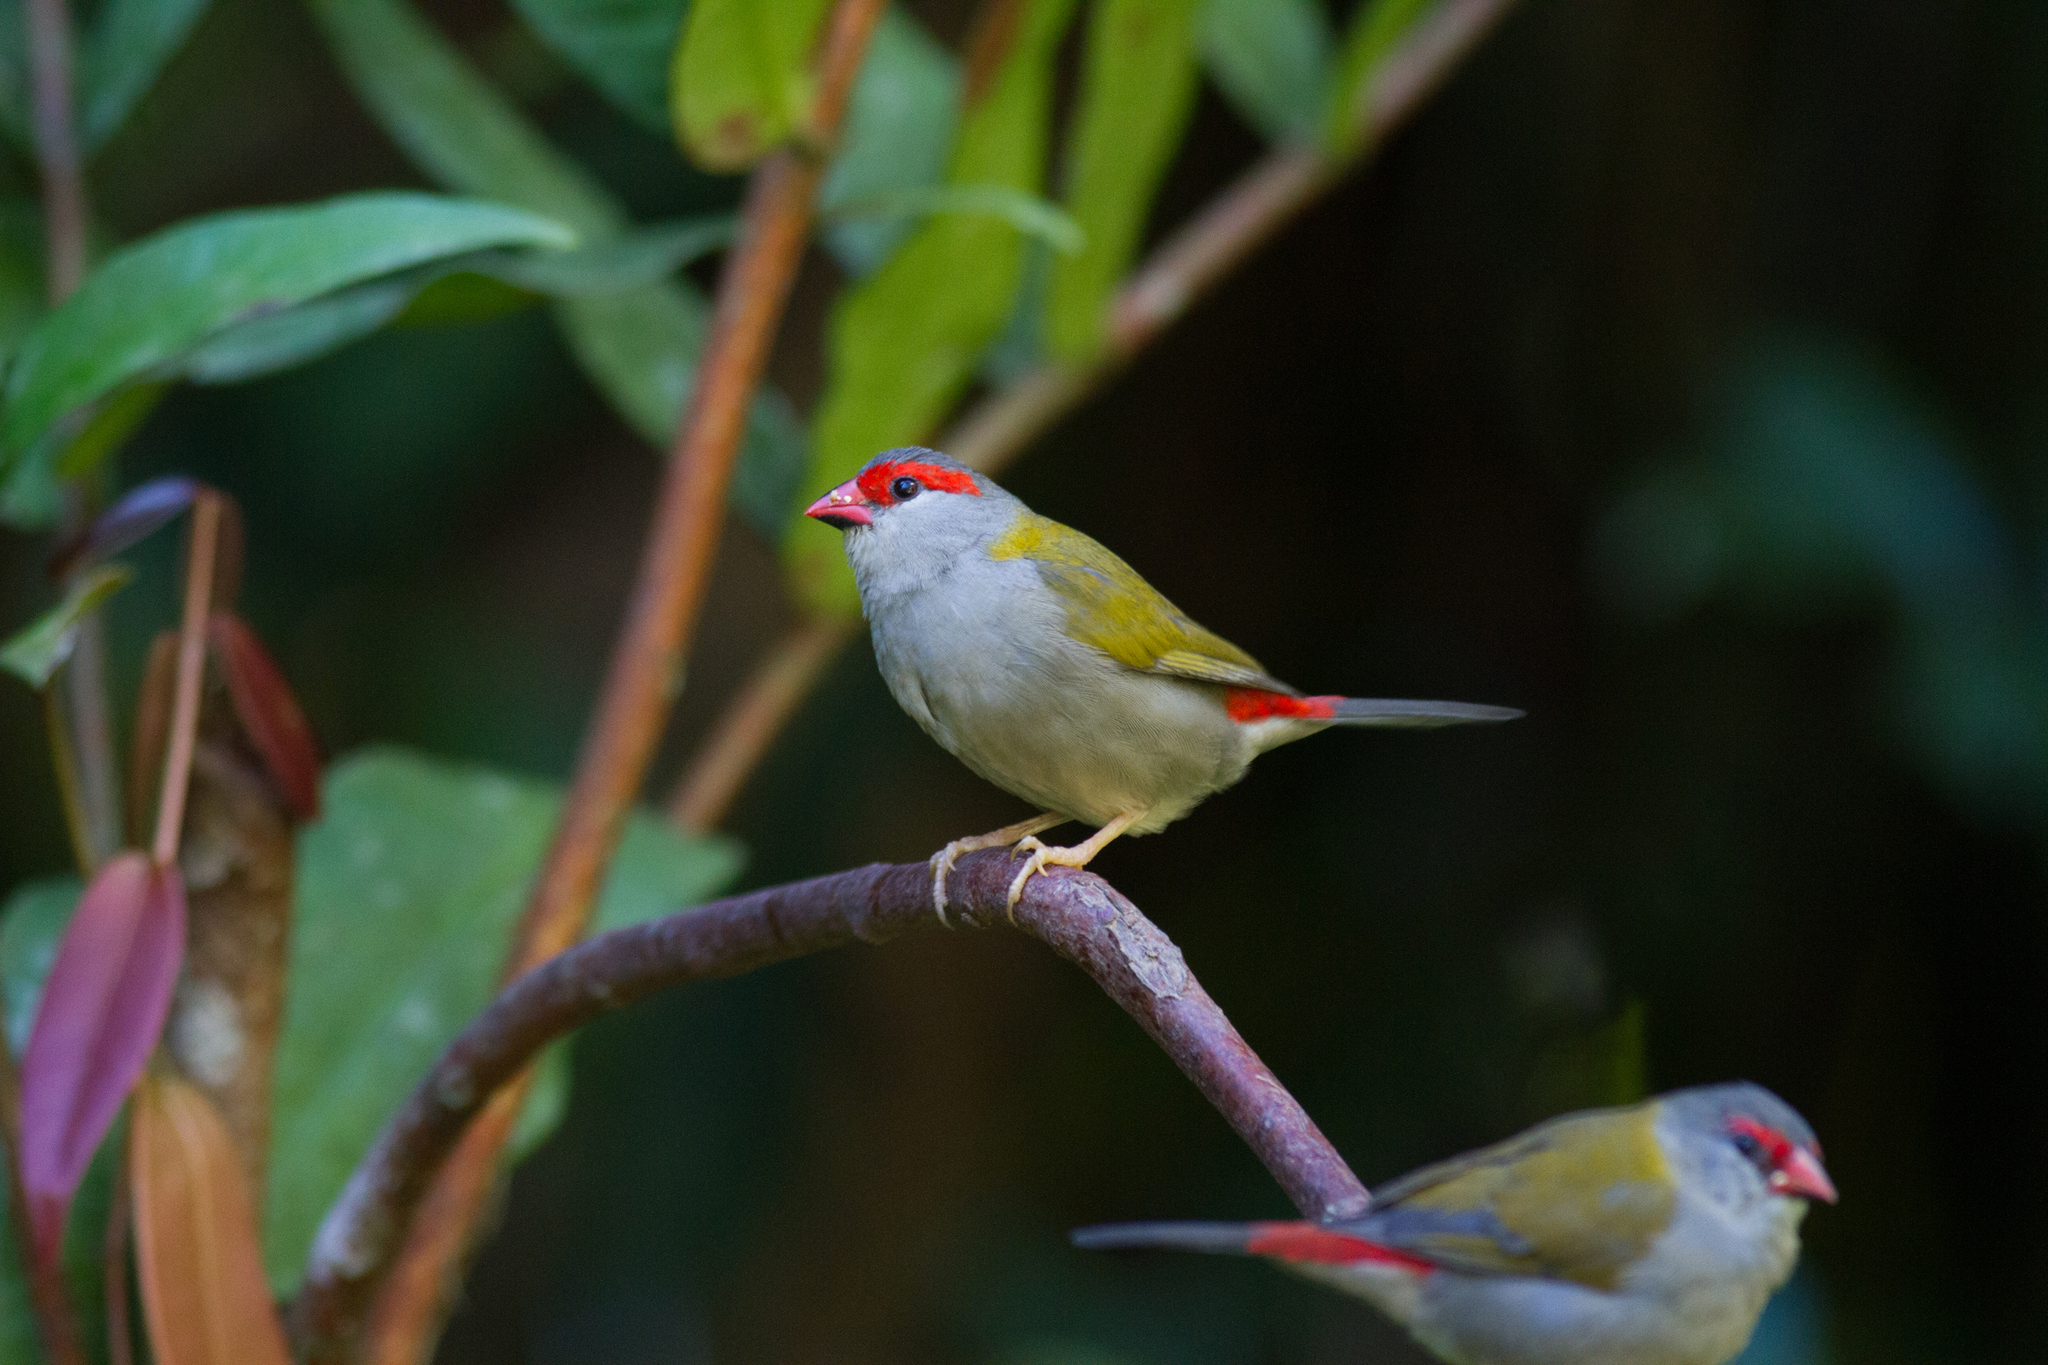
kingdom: Animalia
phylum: Chordata
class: Aves
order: Passeriformes
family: Estrildidae
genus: Neochmia
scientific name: Neochmia temporalis
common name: Red-browed finch
